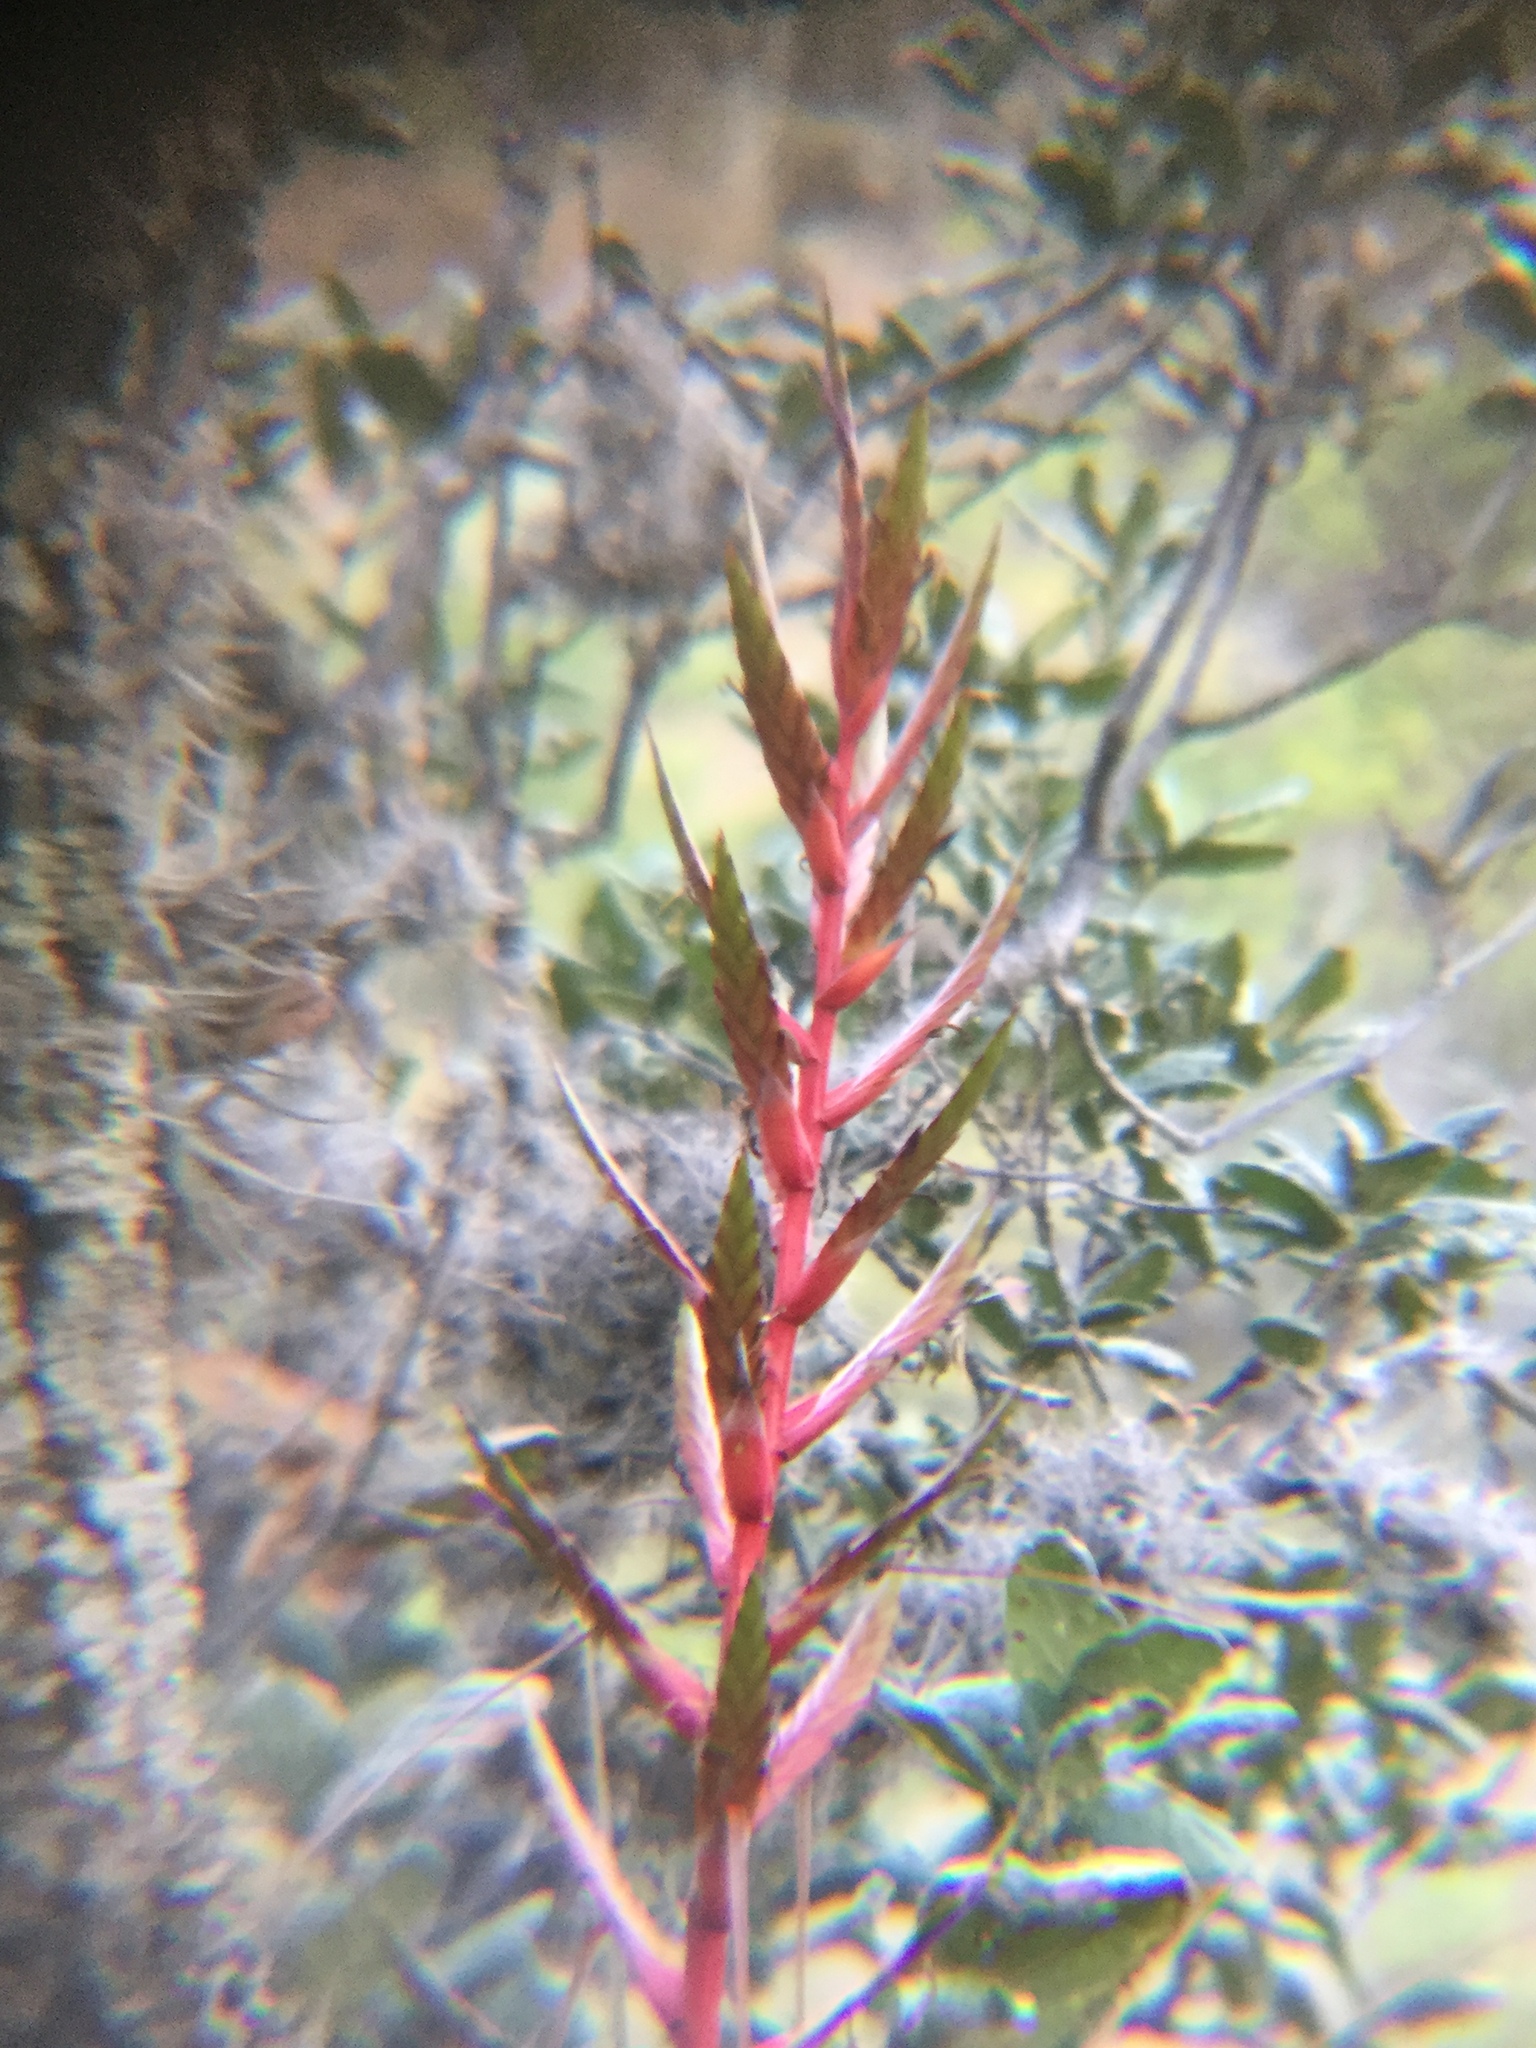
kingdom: Plantae
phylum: Tracheophyta
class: Liliopsida
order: Poales
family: Bromeliaceae
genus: Tillandsia
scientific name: Tillandsia dugesii
